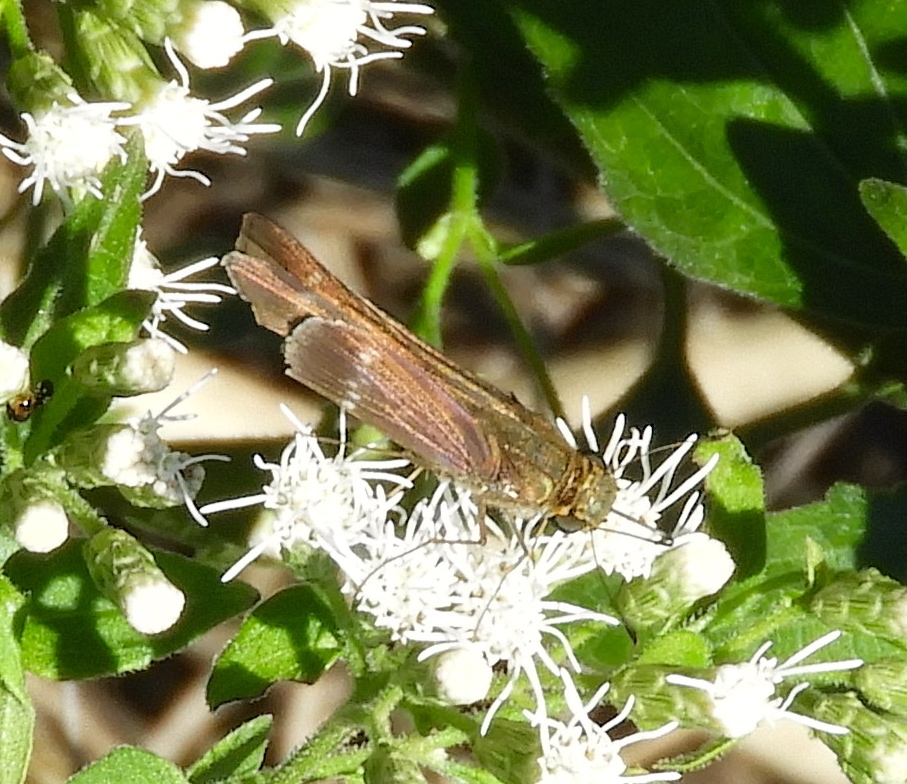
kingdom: Animalia
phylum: Arthropoda
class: Insecta
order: Lepidoptera
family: Hesperiidae
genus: Turesis
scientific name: Turesis lucas
